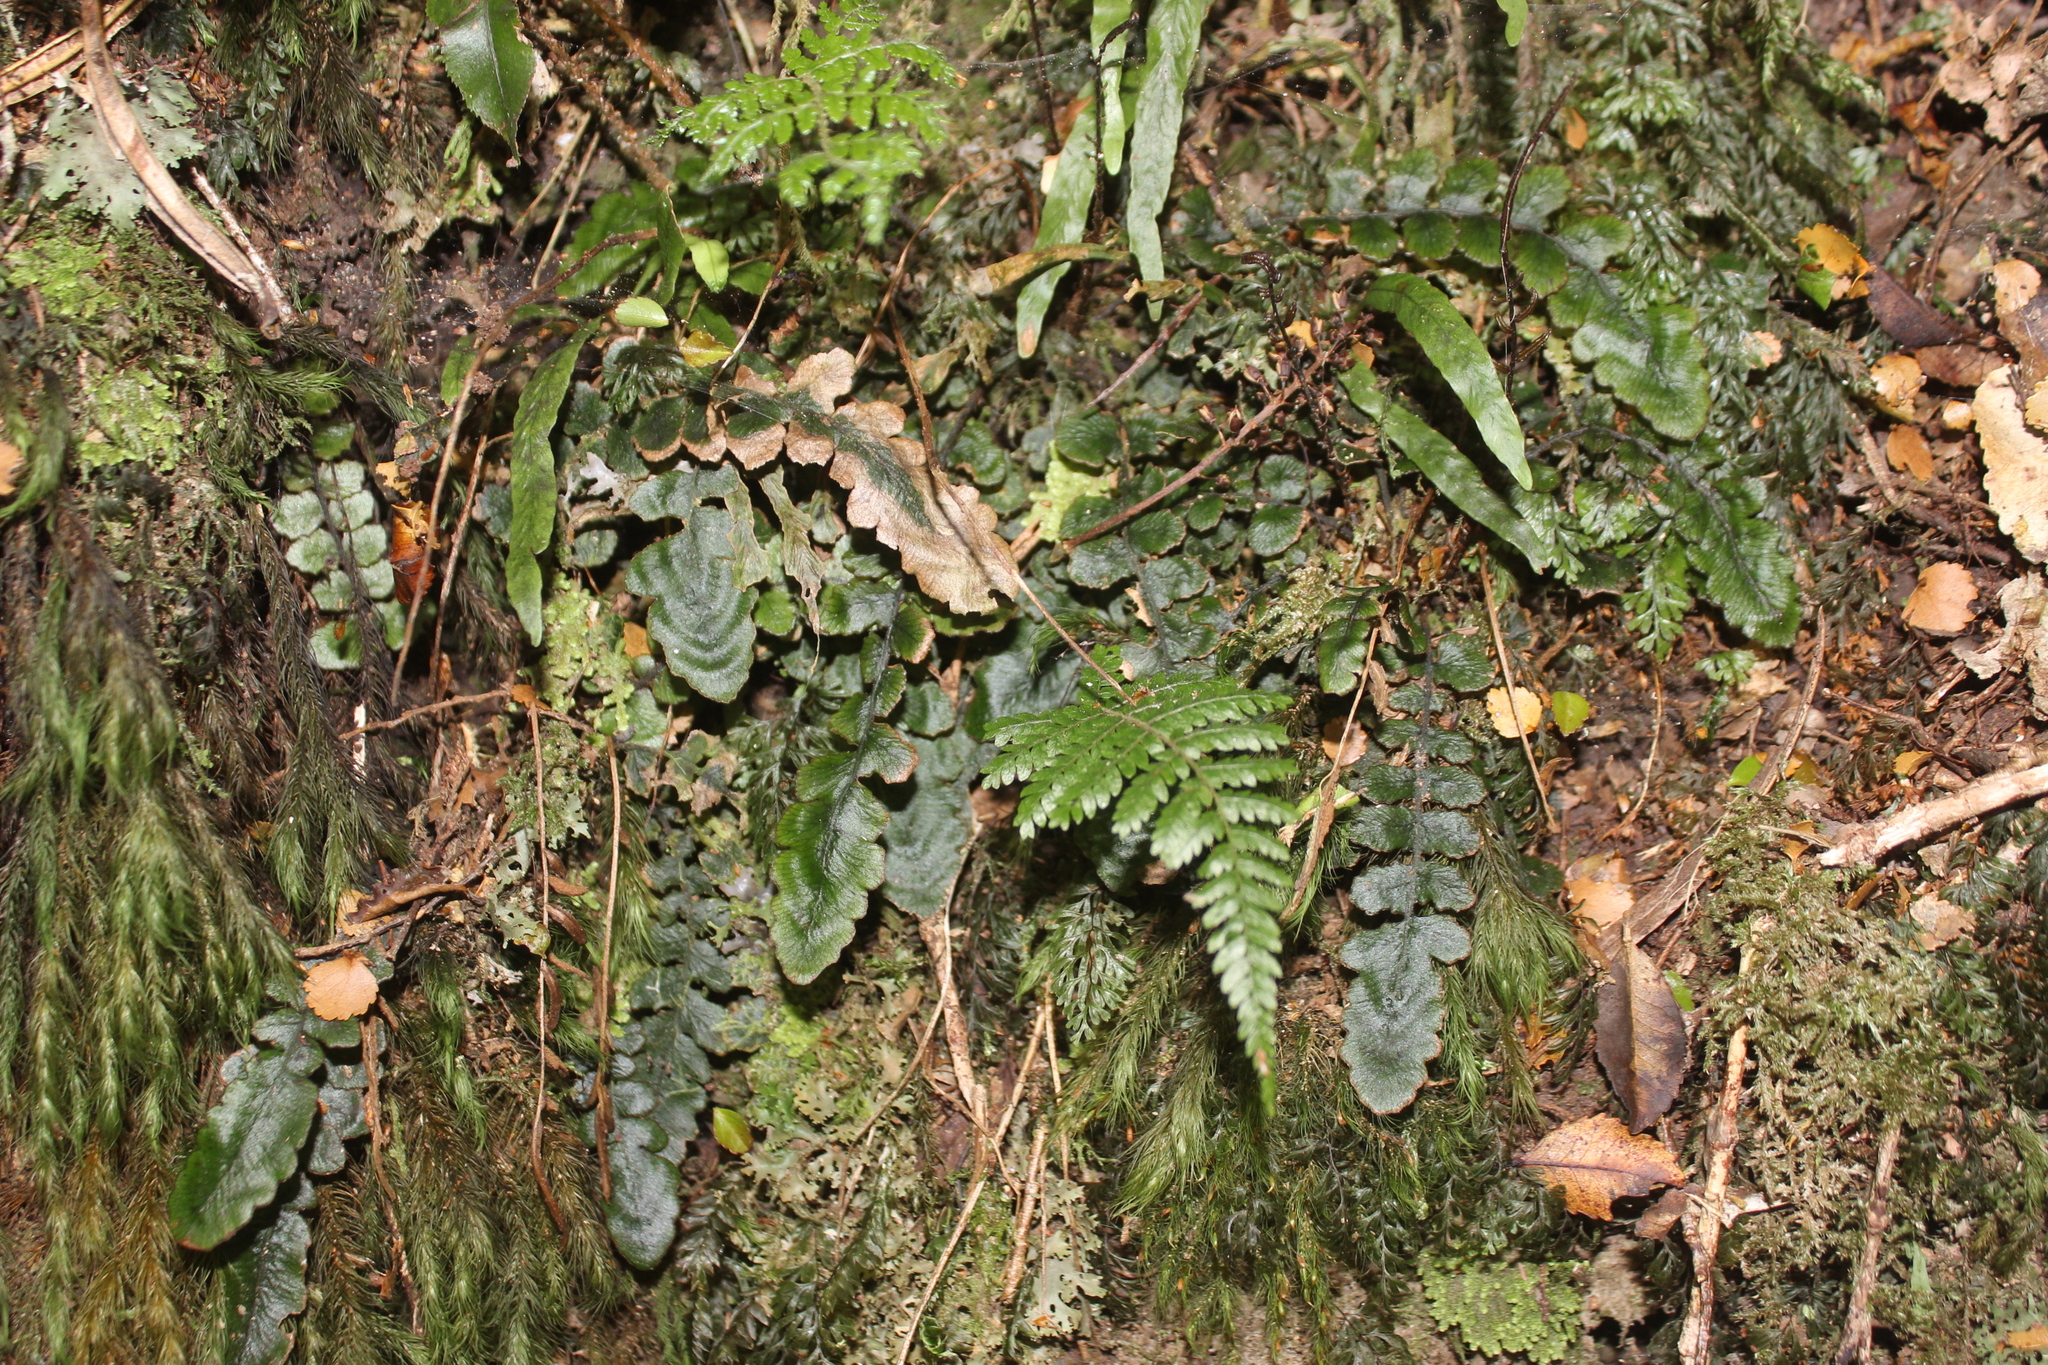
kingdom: Plantae
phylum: Tracheophyta
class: Polypodiopsida
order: Polypodiales
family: Blechnaceae
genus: Cranfillia
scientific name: Cranfillia nigra
